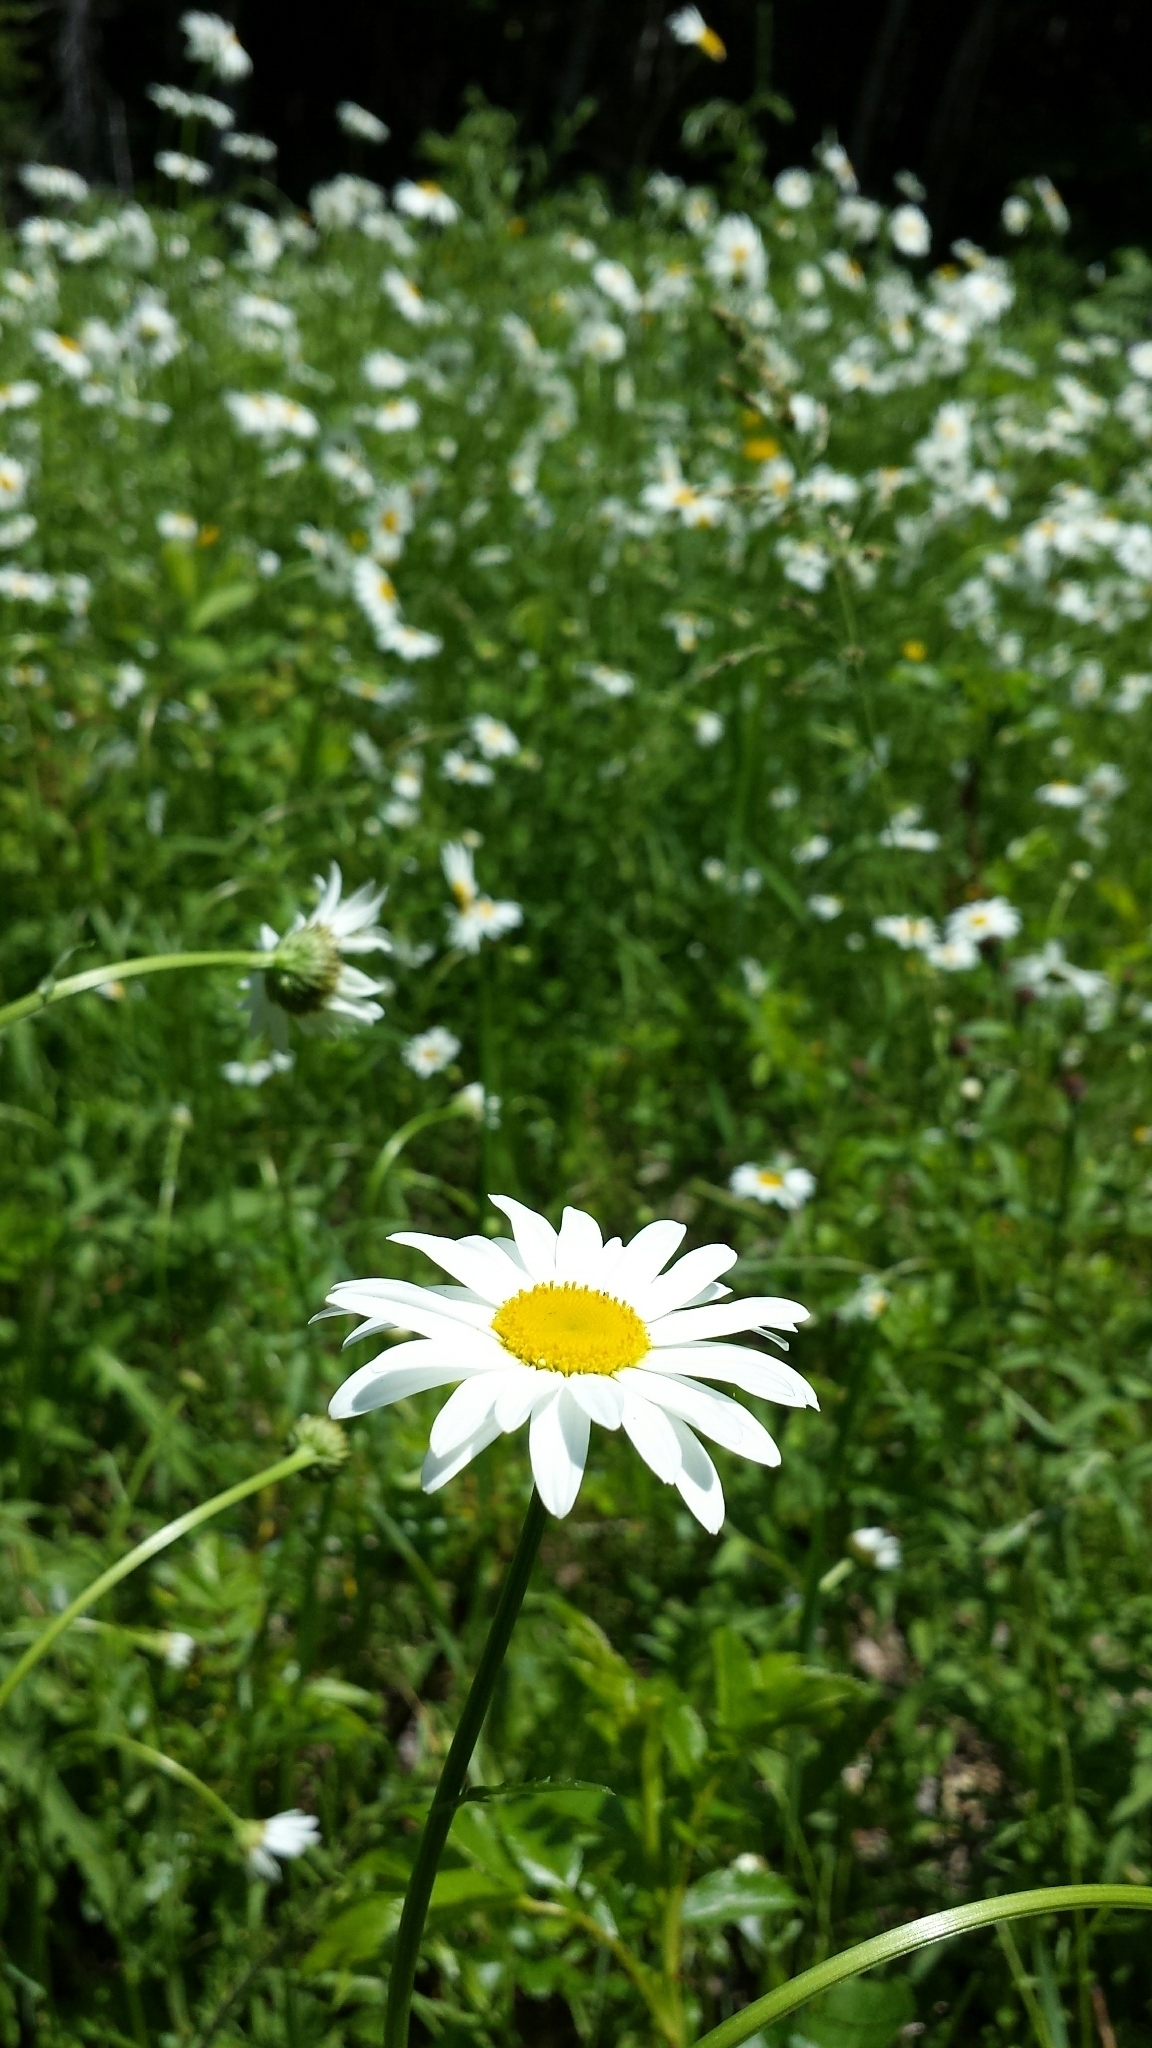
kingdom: Plantae
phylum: Tracheophyta
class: Magnoliopsida
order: Asterales
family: Asteraceae
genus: Leucanthemum
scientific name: Leucanthemum vulgare
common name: Oxeye daisy
